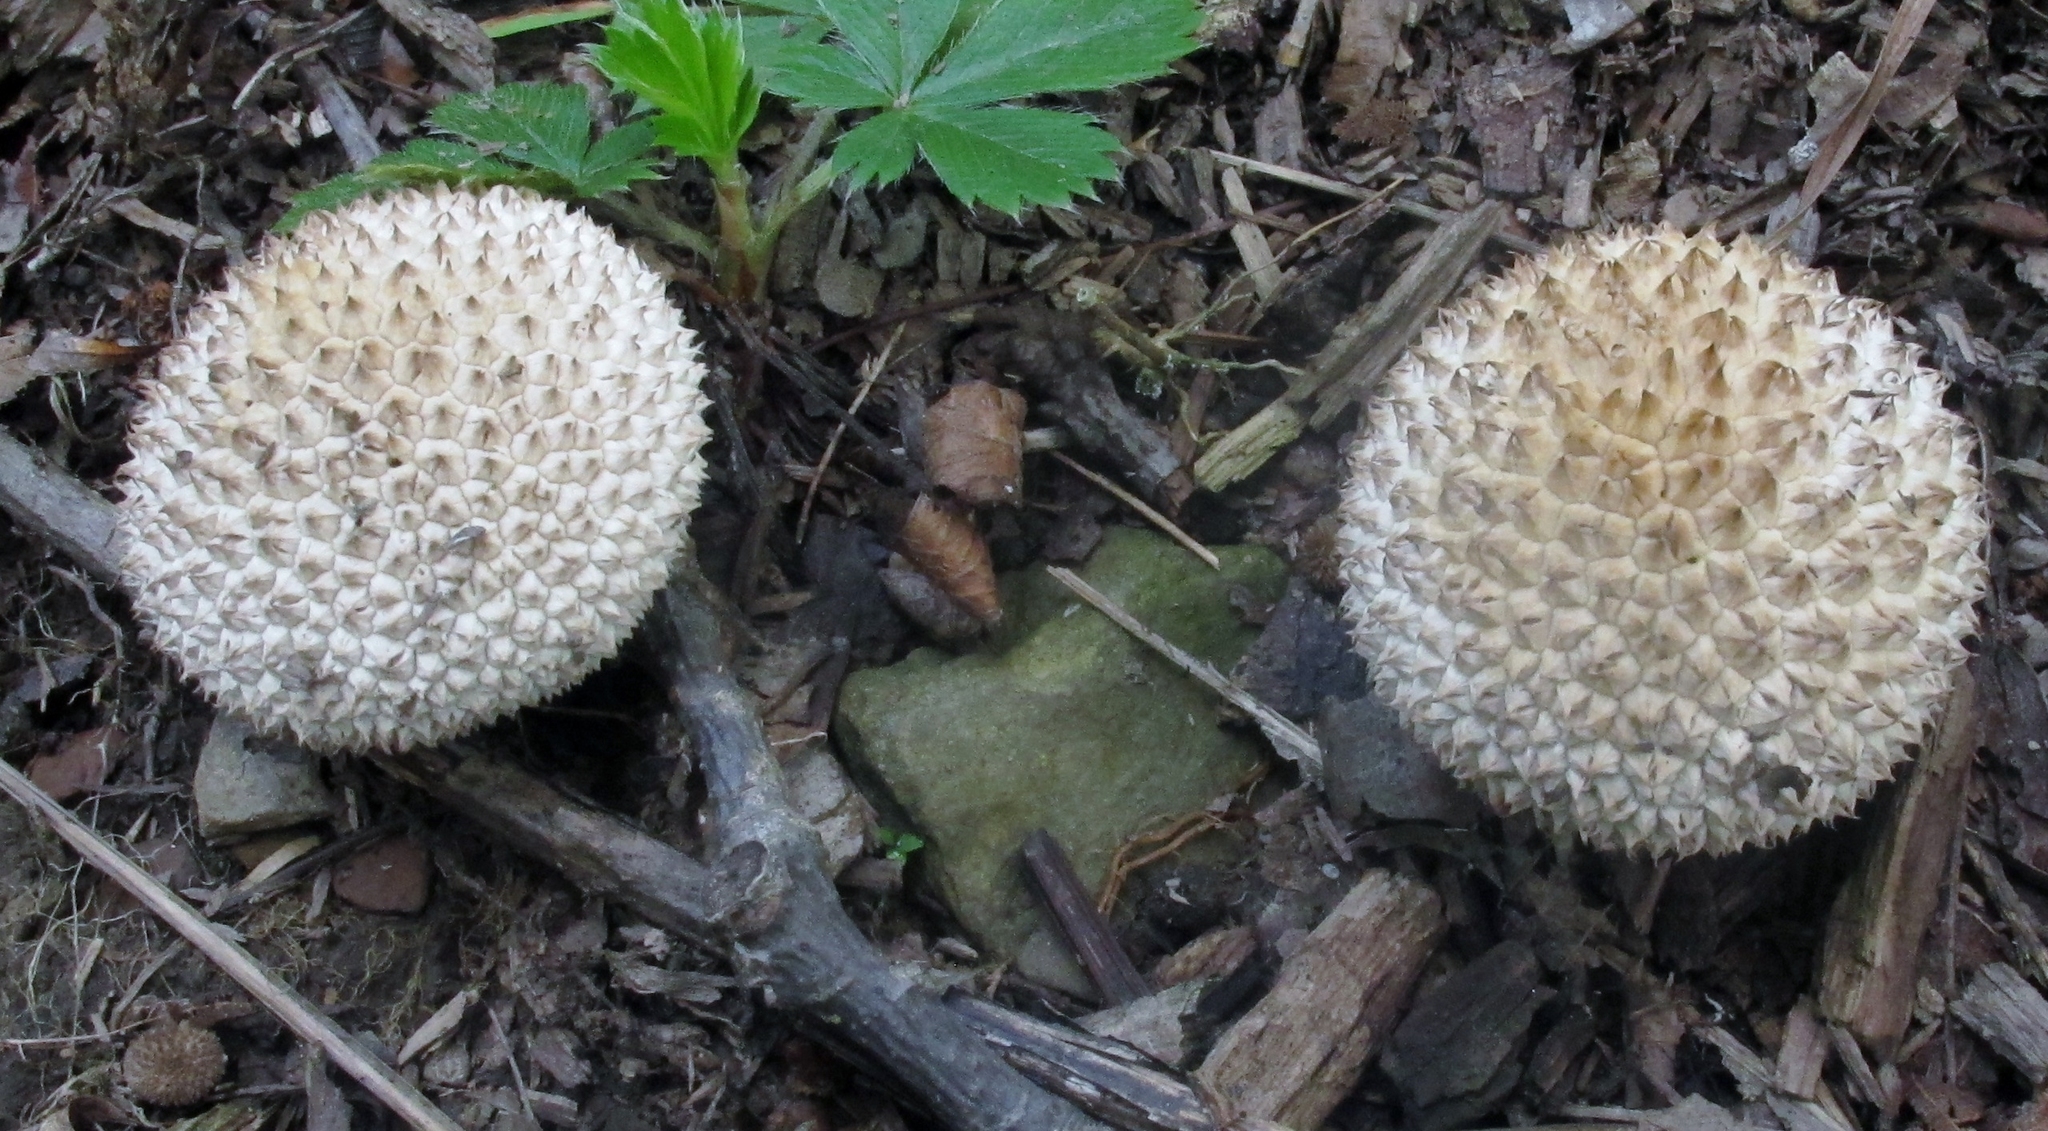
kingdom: Fungi
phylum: Basidiomycota
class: Agaricomycetes
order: Agaricales
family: Lycoperdaceae
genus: Lycoperdon
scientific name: Lycoperdon americanum
